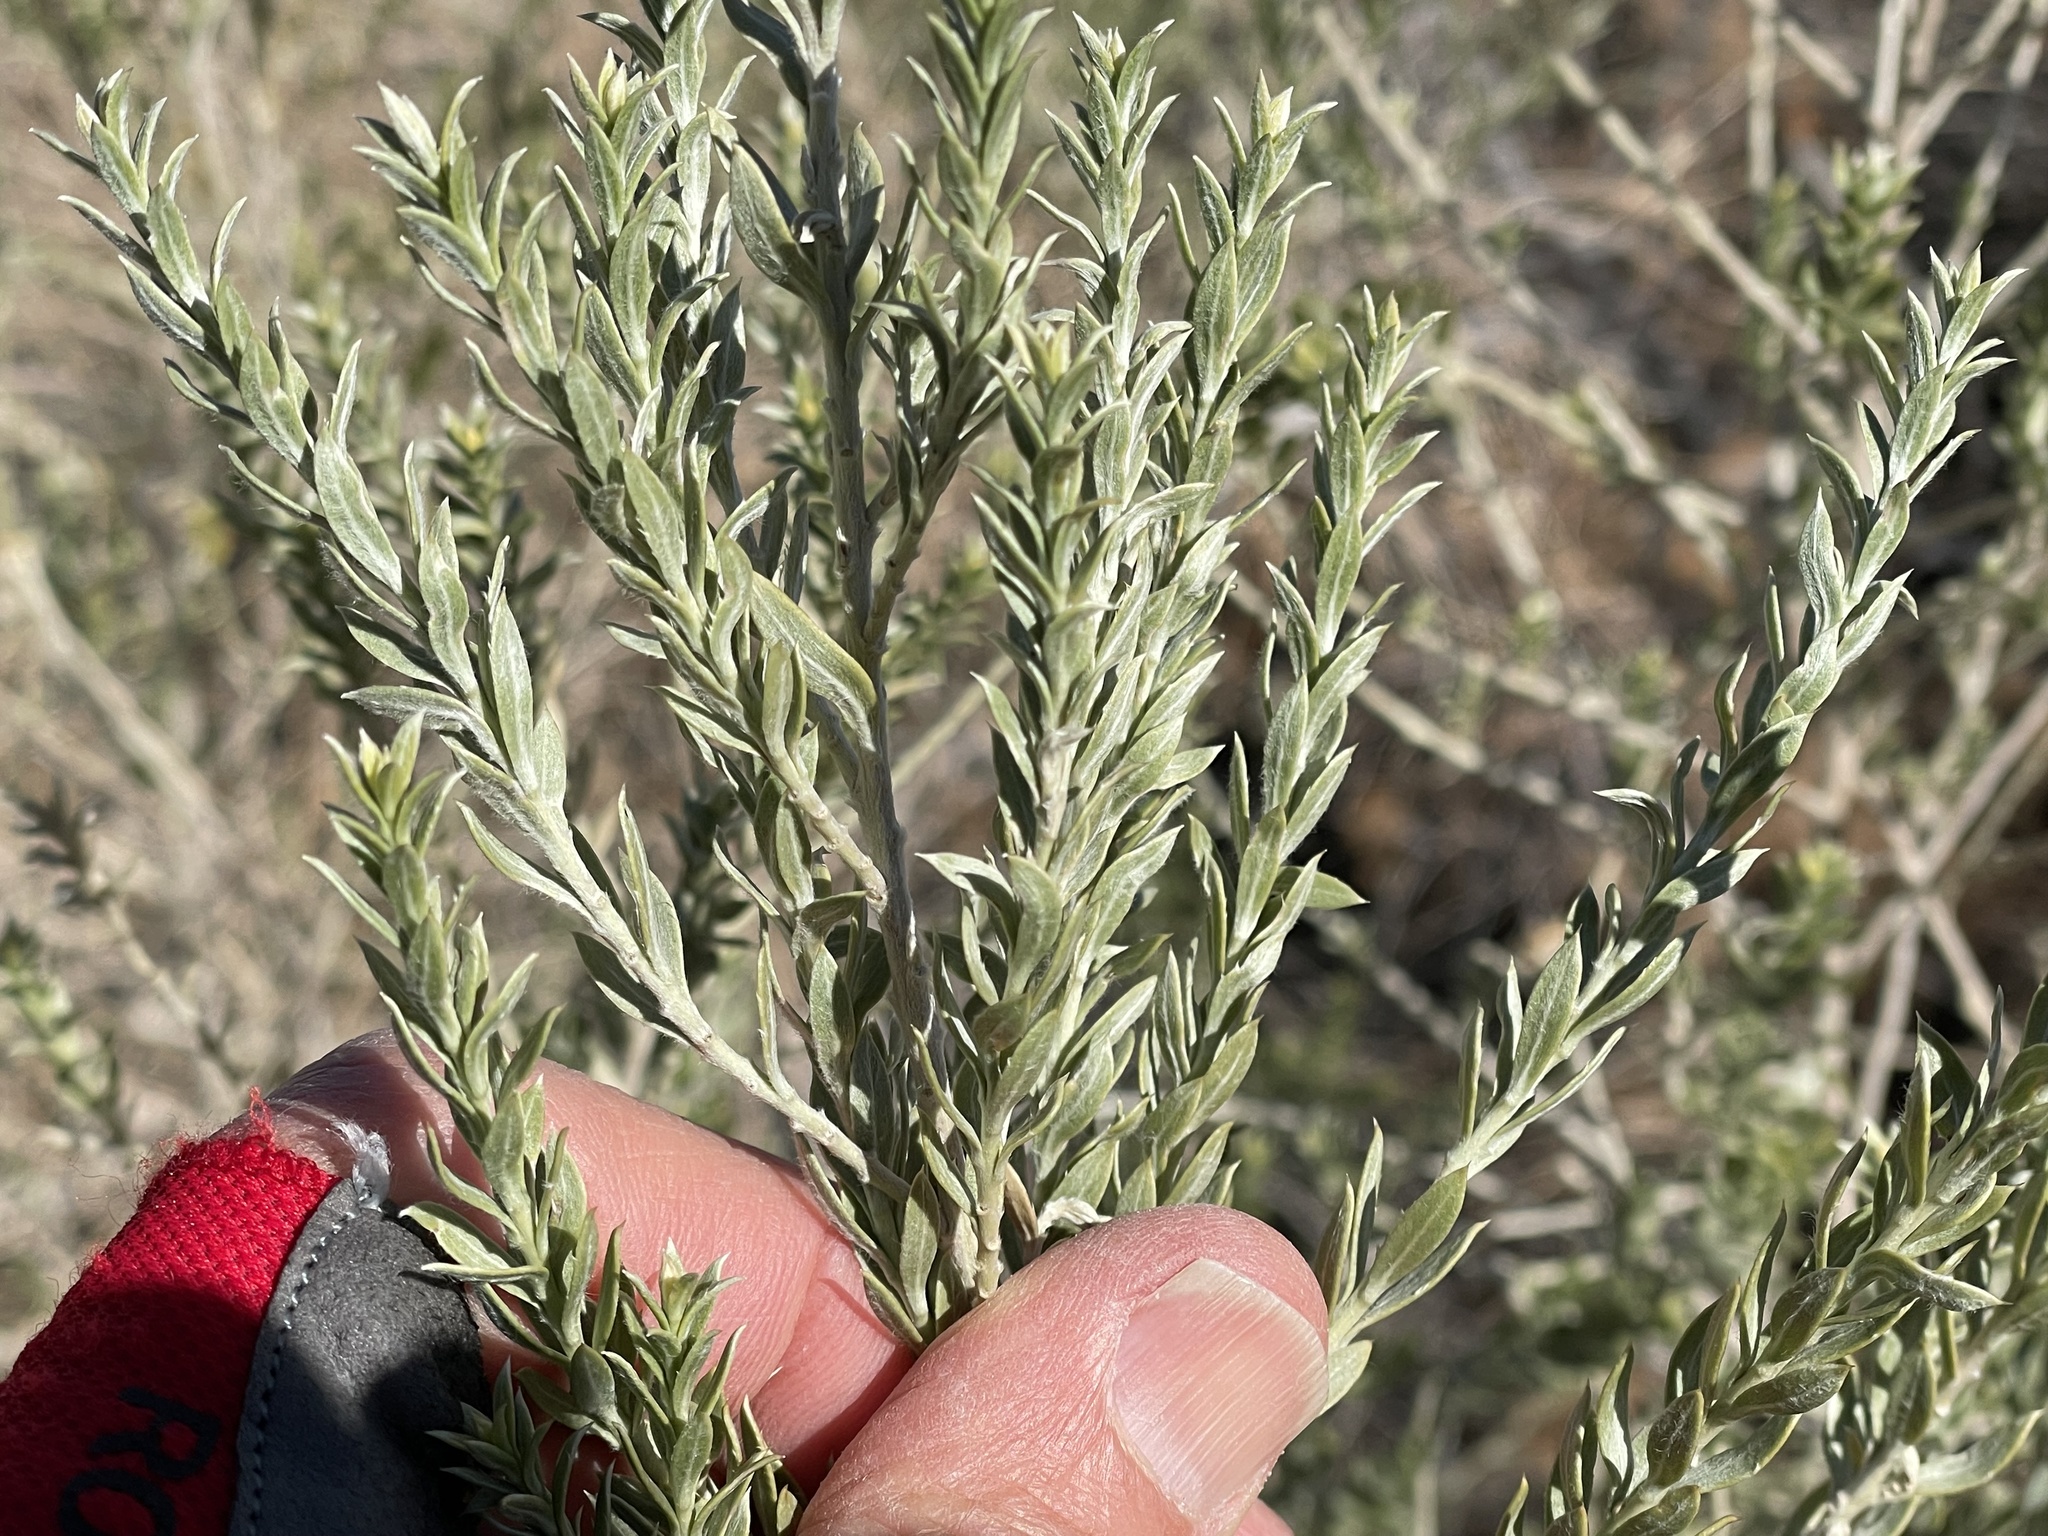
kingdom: Plantae
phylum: Tracheophyta
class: Magnoliopsida
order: Asterales
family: Asteraceae
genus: Pluchea
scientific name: Pluchea sericea
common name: Arrow-weed
